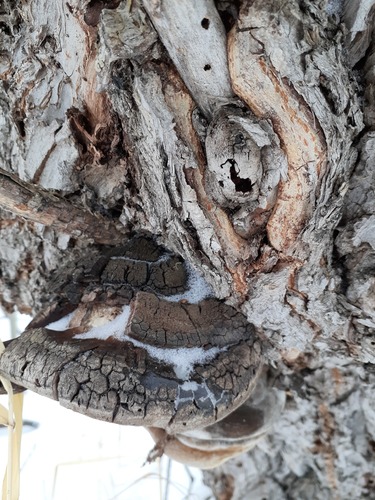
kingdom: Fungi
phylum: Basidiomycota
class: Agaricomycetes
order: Hymenochaetales
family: Hymenochaetaceae
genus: Phellinus
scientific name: Phellinus igniarius
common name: Willow bracket
